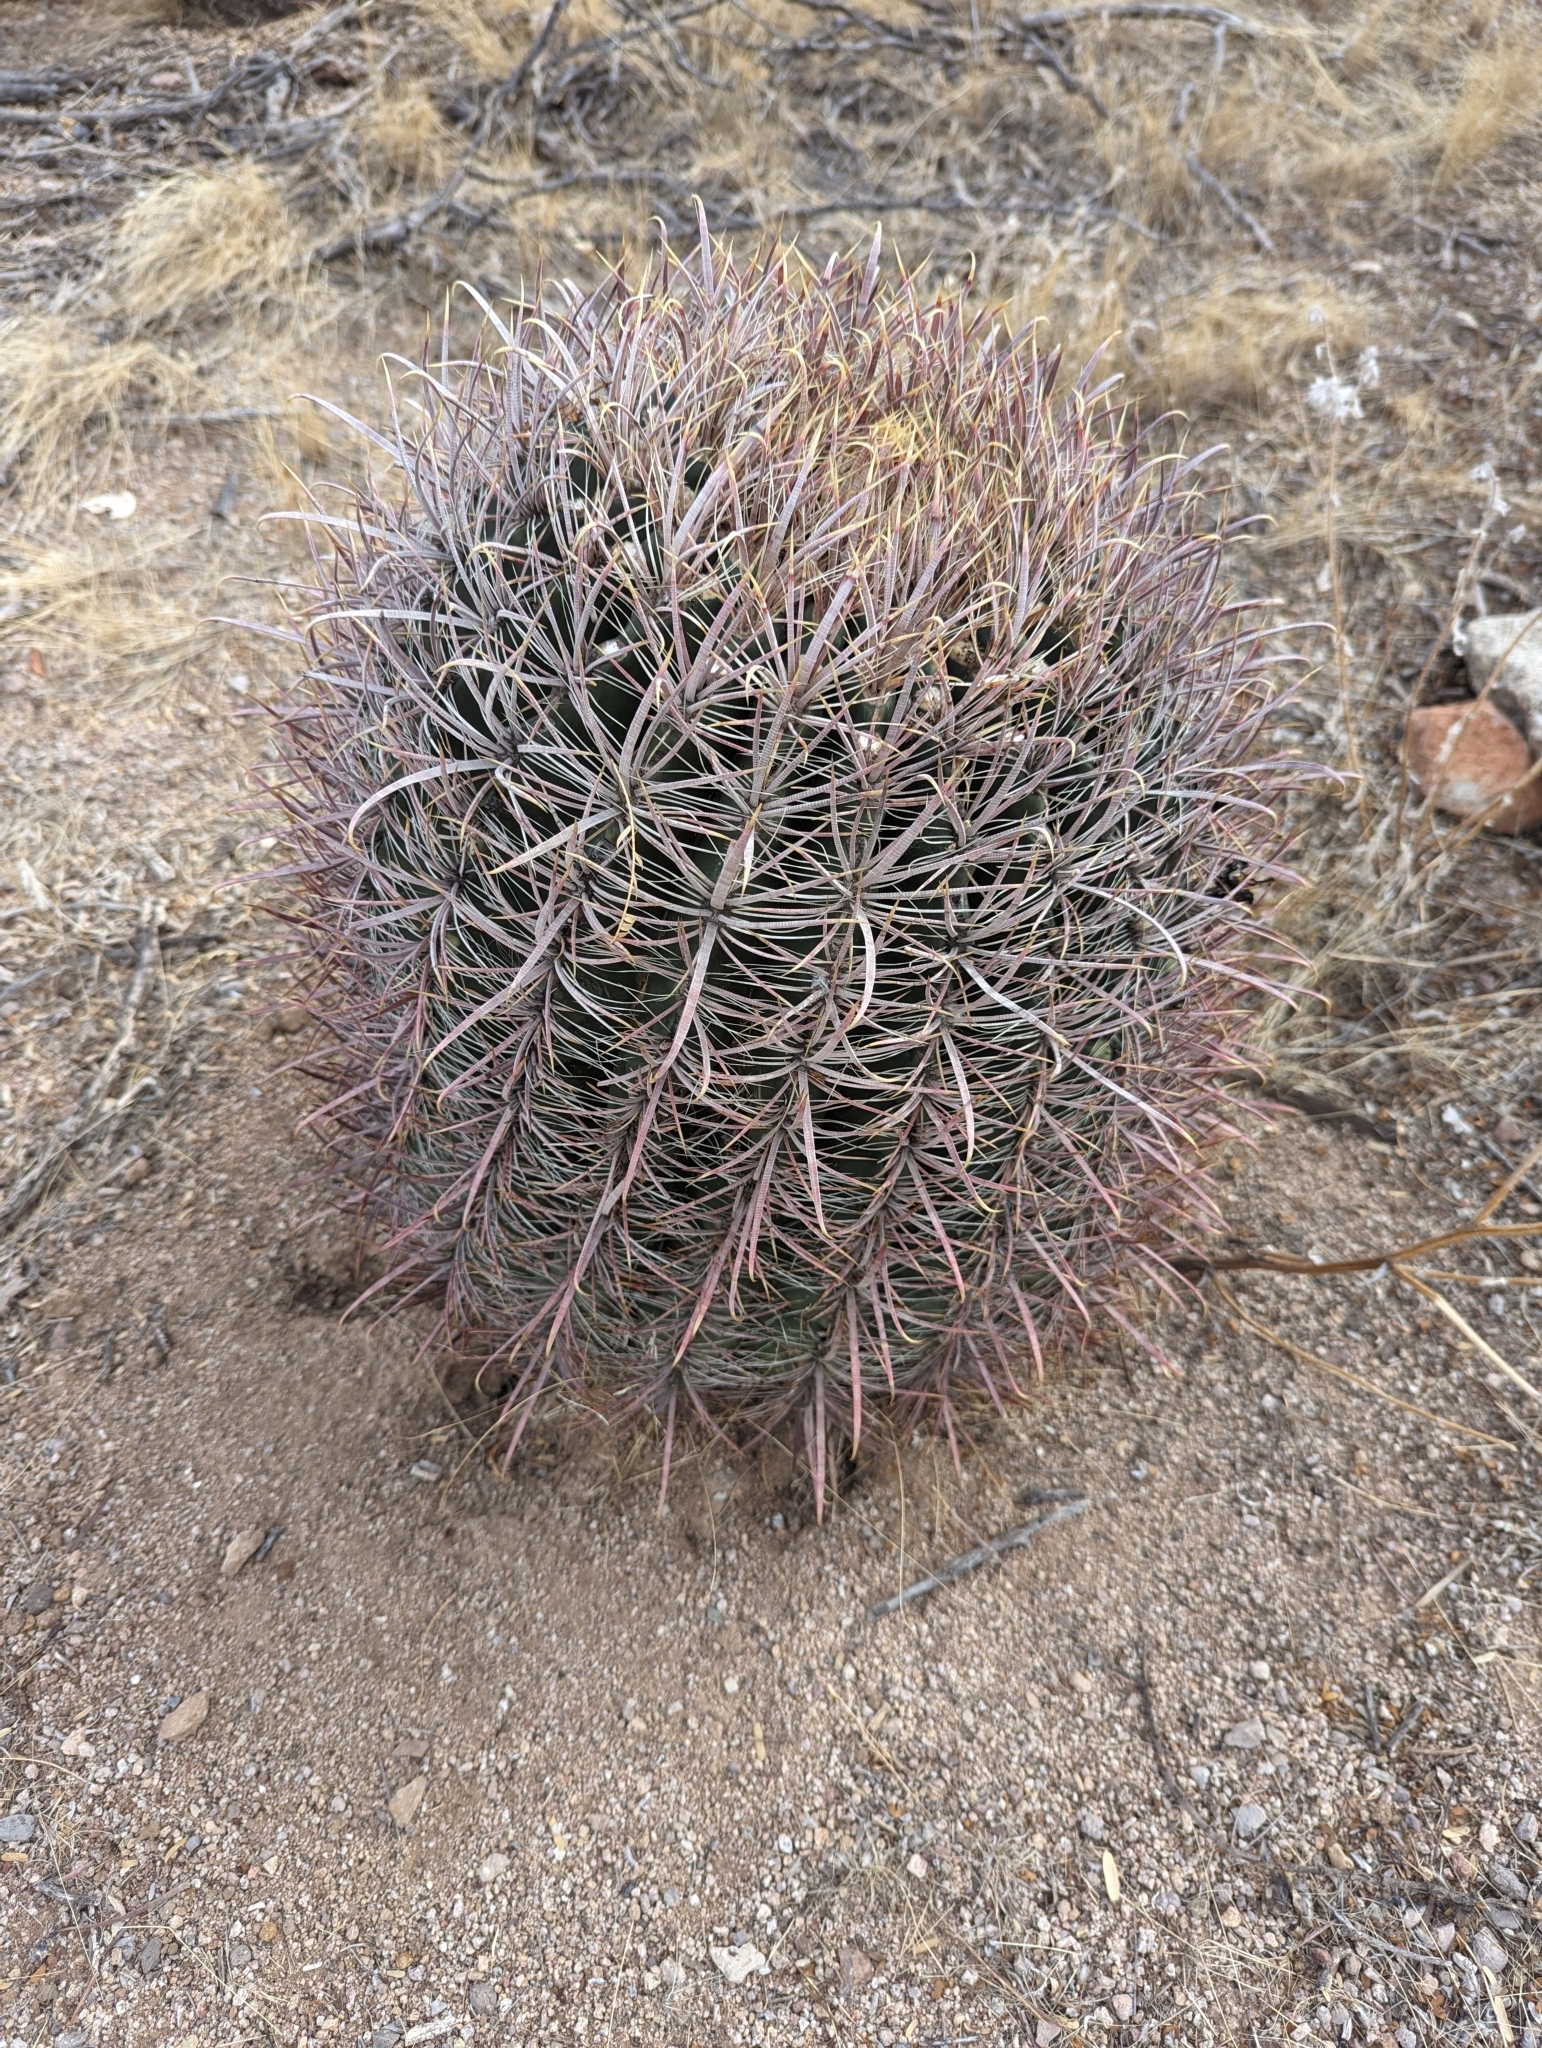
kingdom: Plantae
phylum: Tracheophyta
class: Magnoliopsida
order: Caryophyllales
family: Cactaceae
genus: Ferocactus
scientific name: Ferocactus cylindraceus
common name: California barrel cactus
